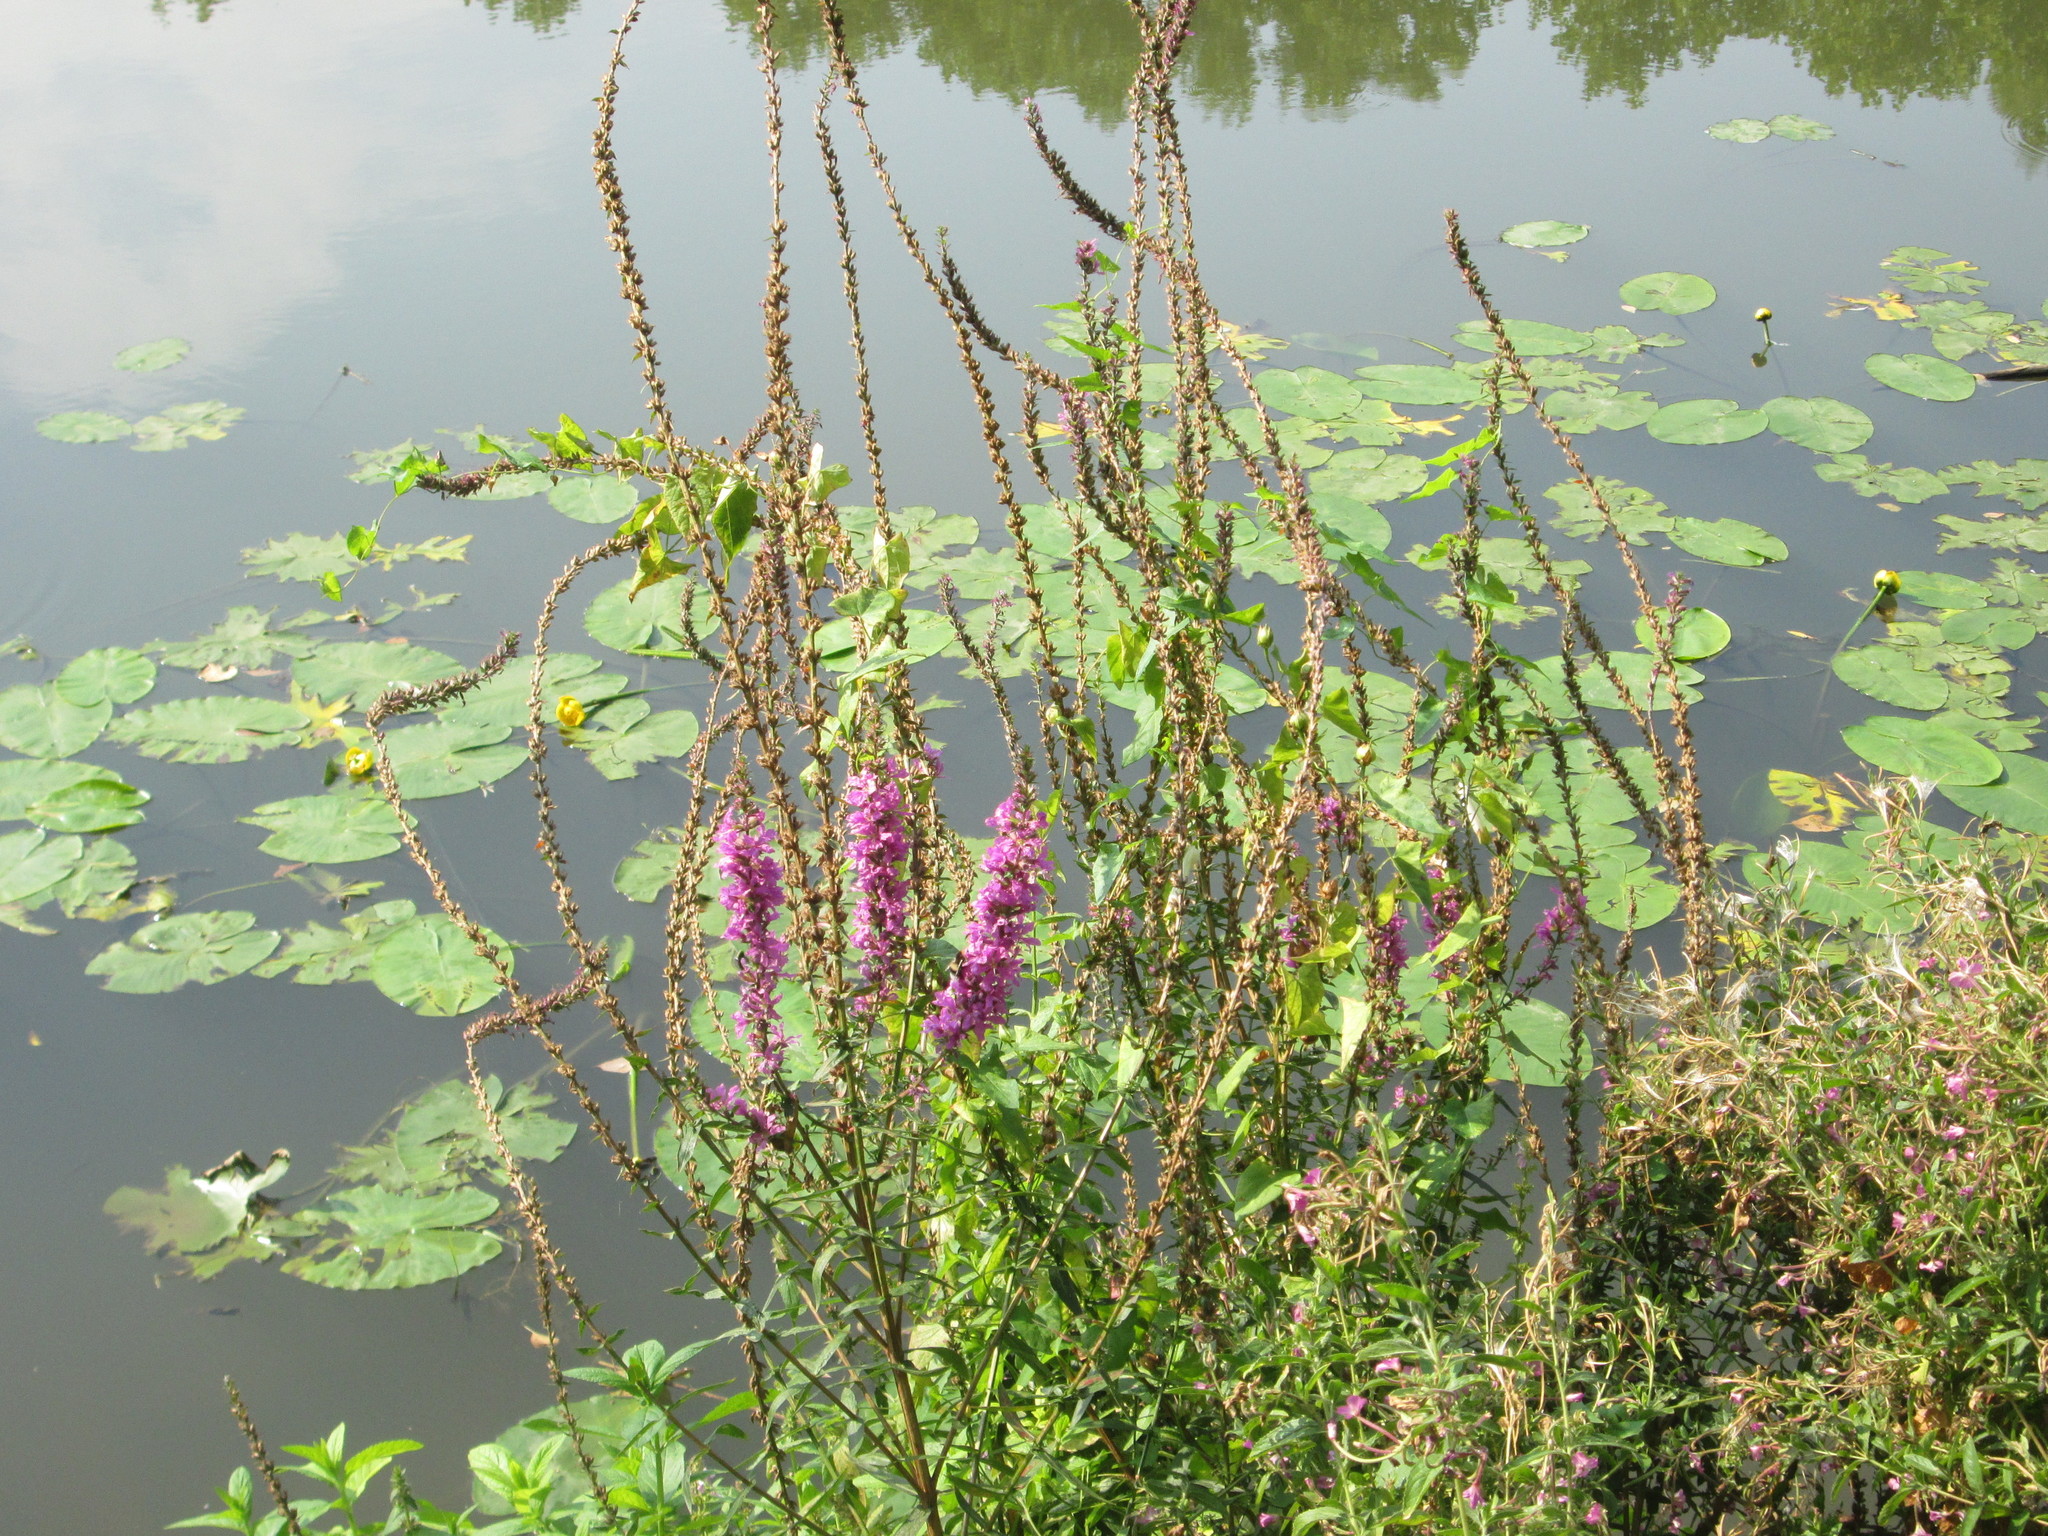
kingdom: Plantae
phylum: Tracheophyta
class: Magnoliopsida
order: Myrtales
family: Lythraceae
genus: Lythrum
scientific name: Lythrum salicaria
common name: Purple loosestrife
